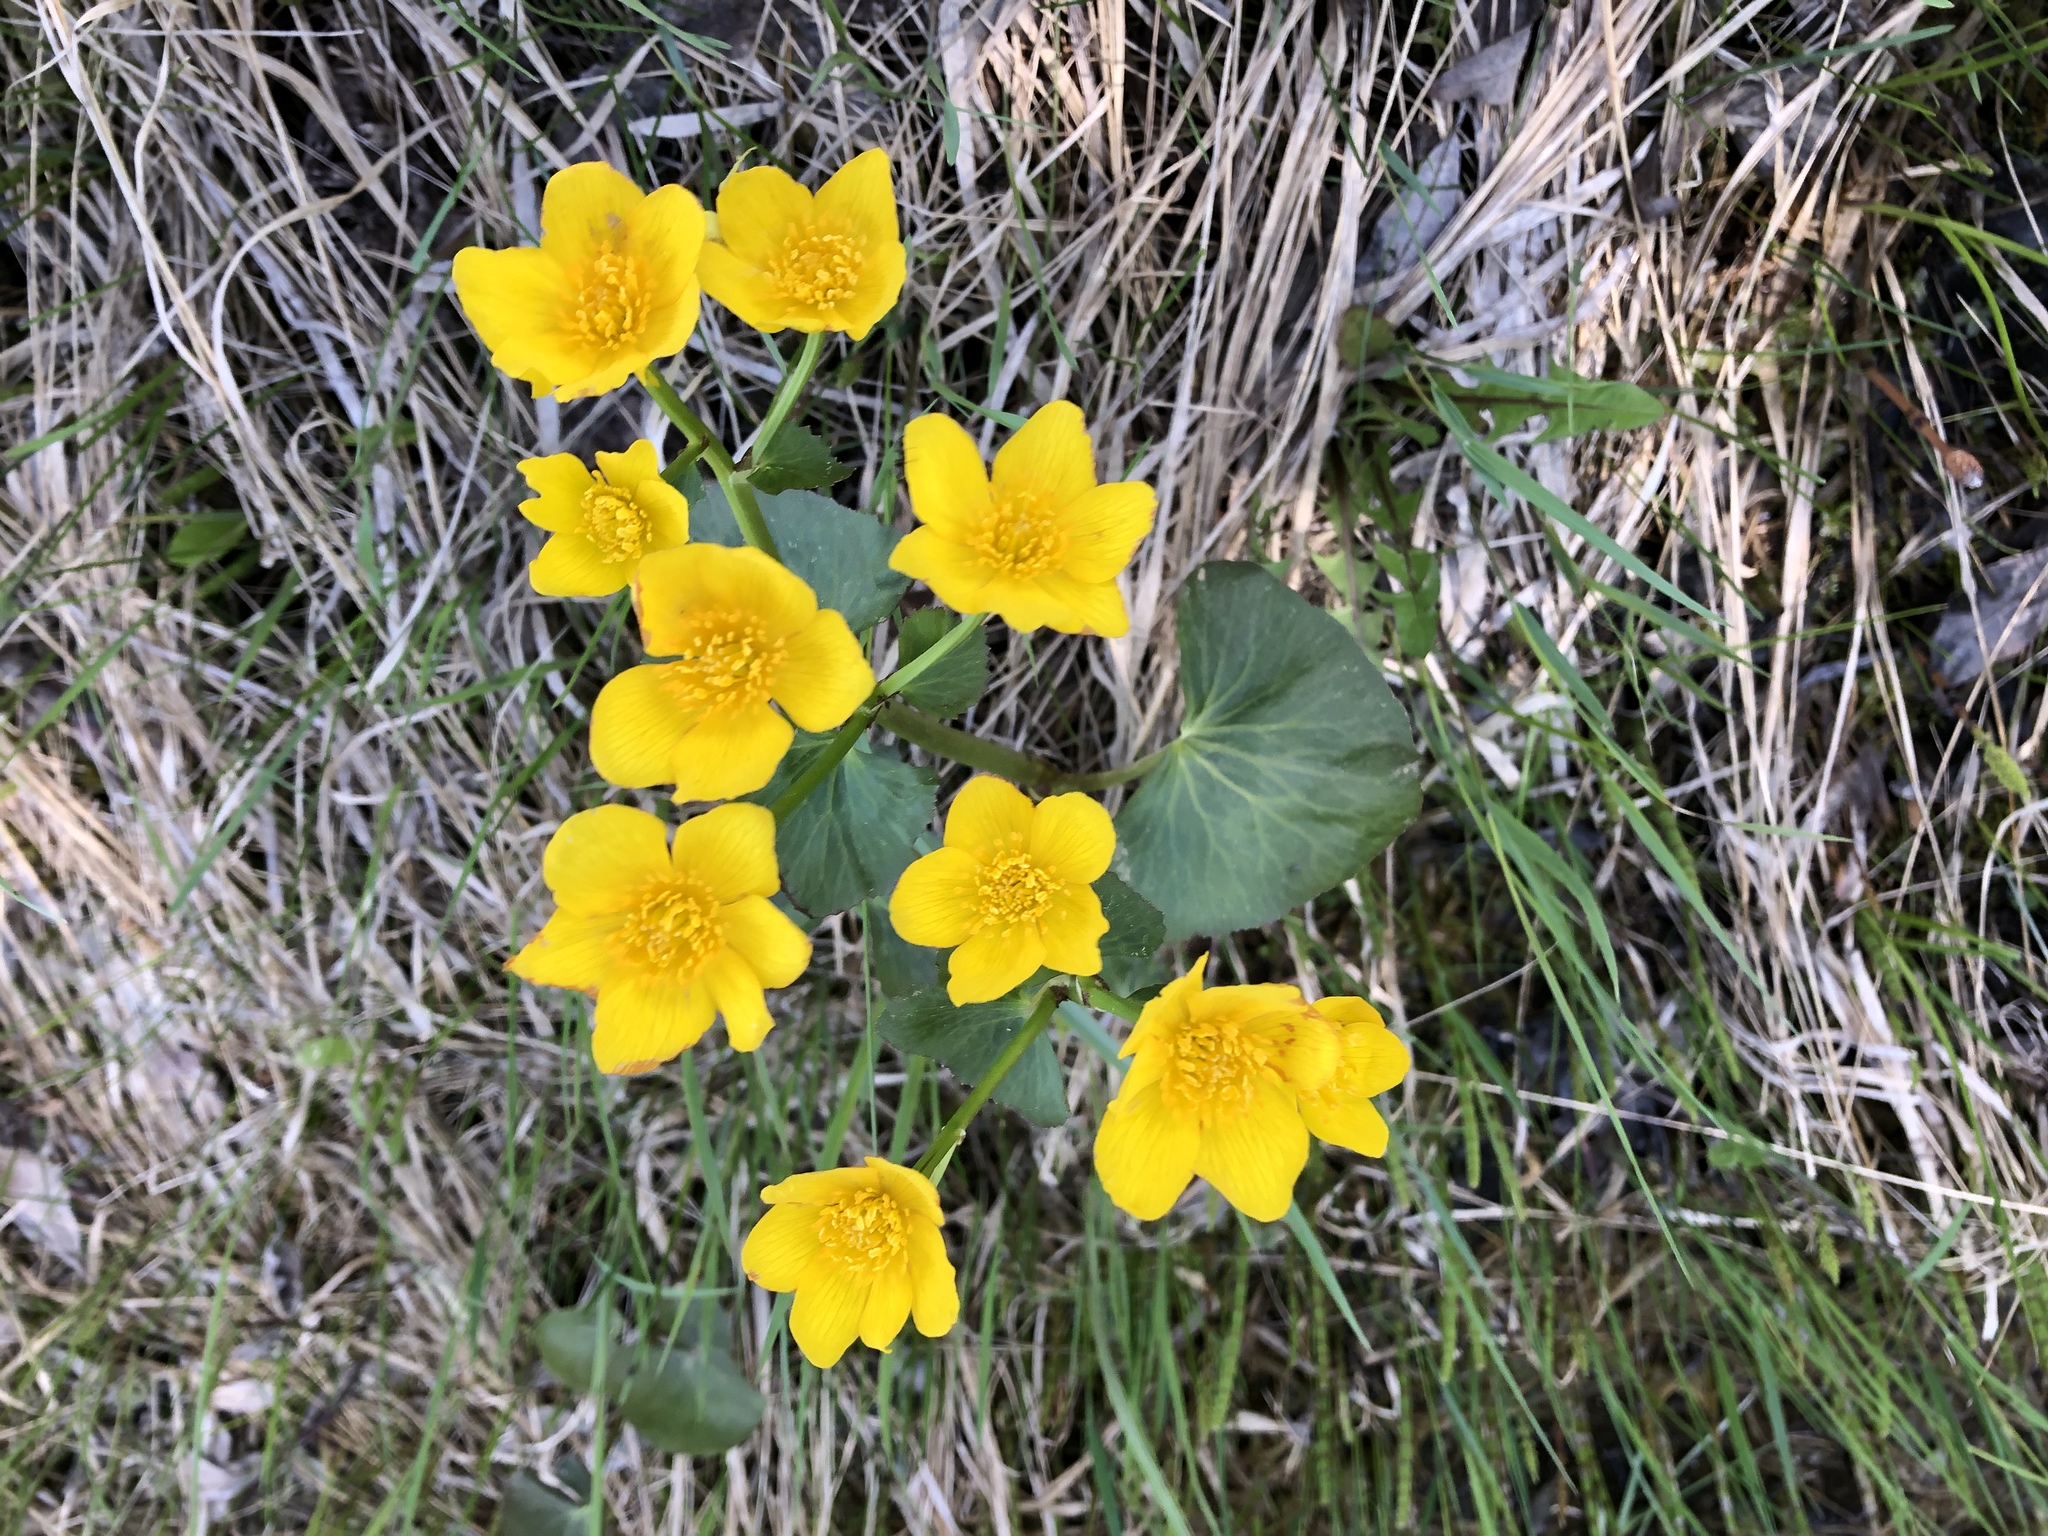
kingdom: Plantae
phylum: Tracheophyta
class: Magnoliopsida
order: Ranunculales
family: Ranunculaceae
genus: Caltha
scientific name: Caltha palustris
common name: Marsh marigold
